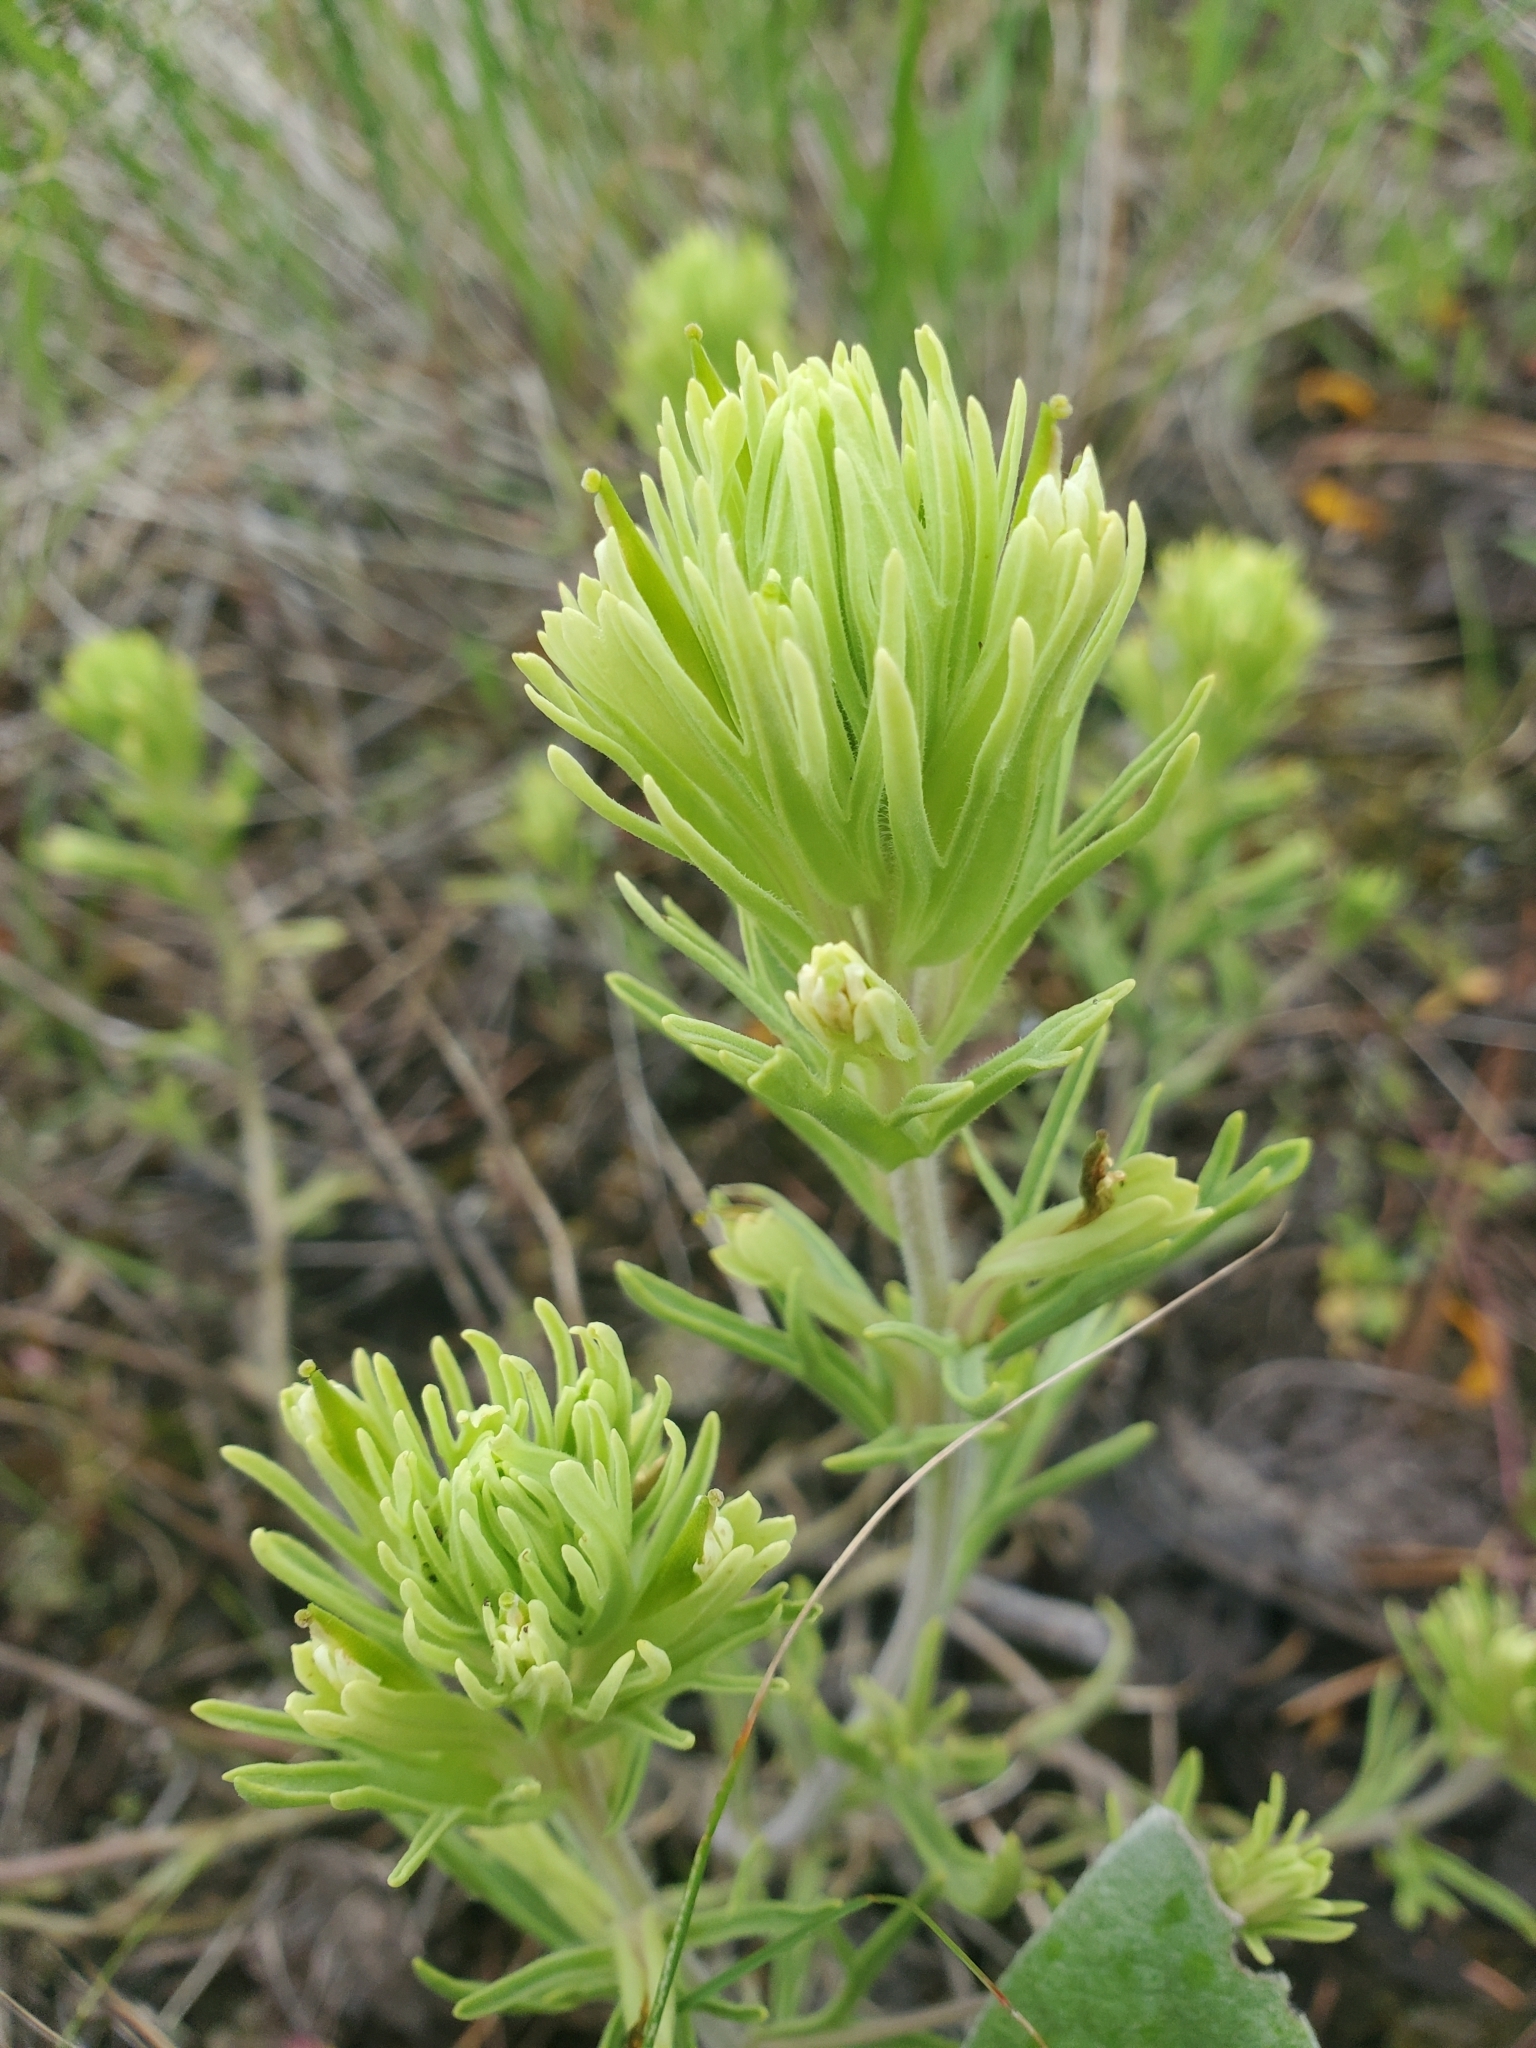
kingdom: Plantae
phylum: Tracheophyta
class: Magnoliopsida
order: Lamiales
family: Orobanchaceae
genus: Castilleja
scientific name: Castilleja thompsonii
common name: Thompson's paintbrush
